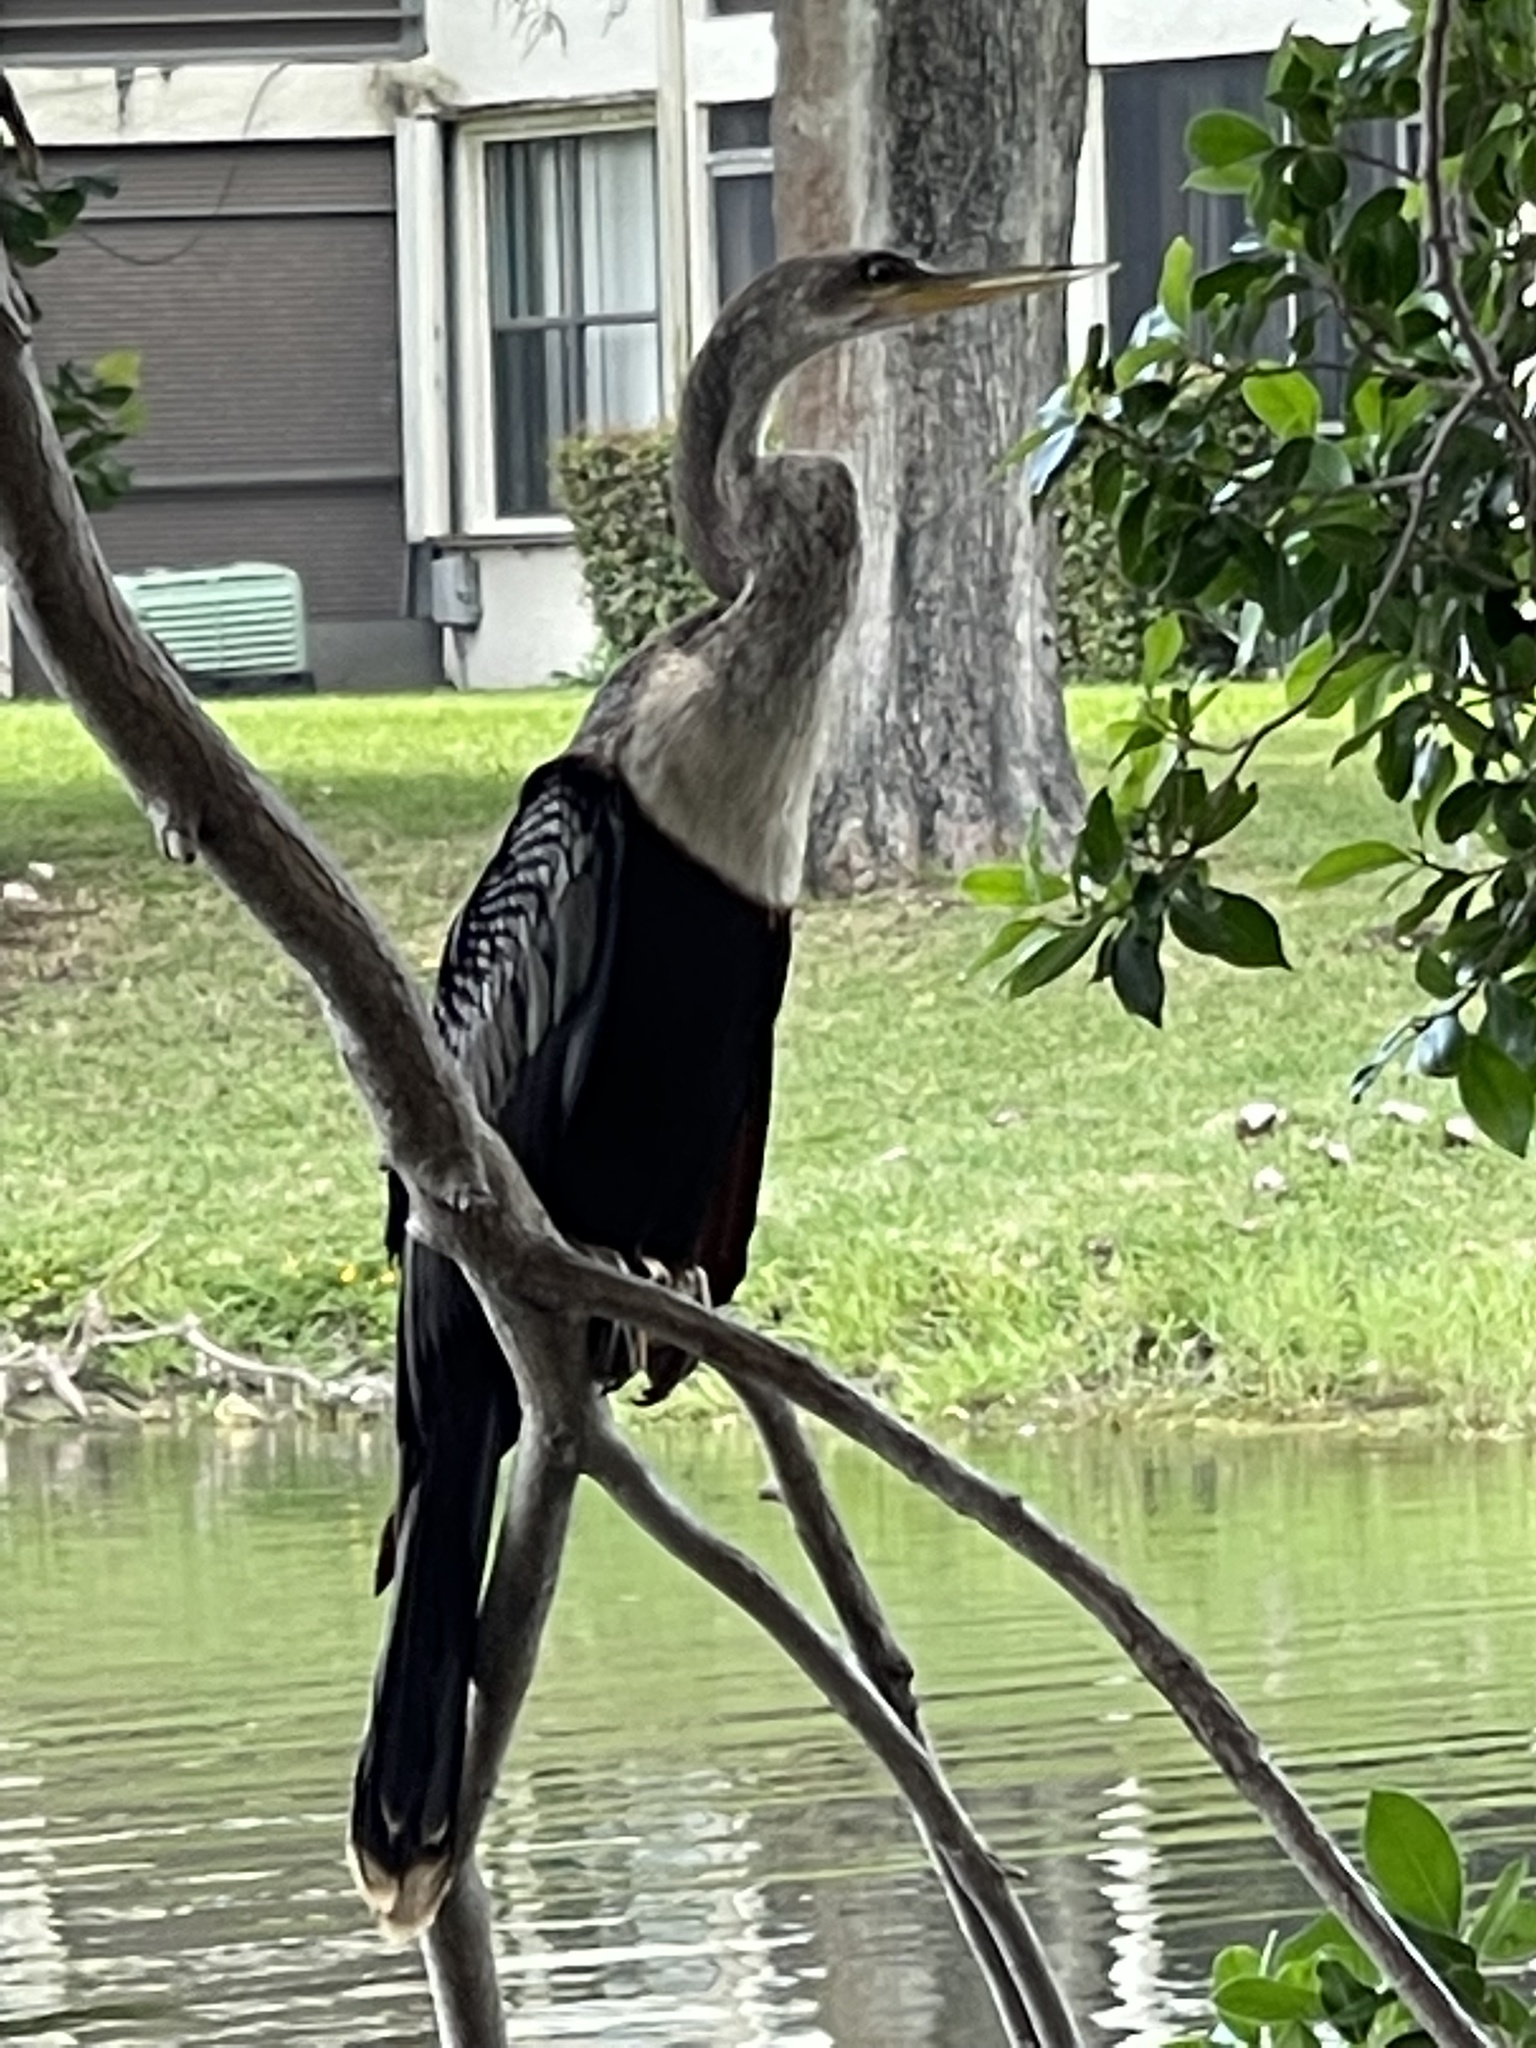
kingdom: Animalia
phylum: Chordata
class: Aves
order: Suliformes
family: Anhingidae
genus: Anhinga
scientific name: Anhinga anhinga
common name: Anhinga
